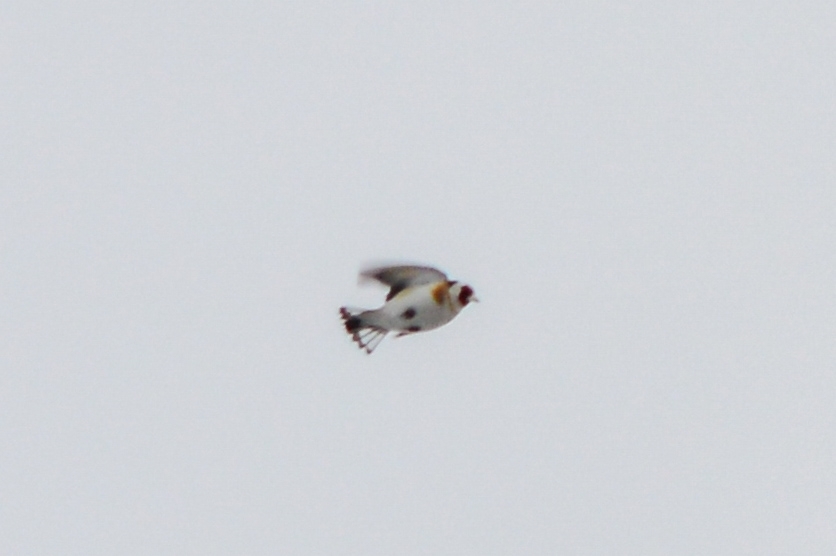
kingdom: Animalia
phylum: Chordata
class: Aves
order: Passeriformes
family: Fringillidae
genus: Carduelis
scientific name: Carduelis carduelis
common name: European goldfinch
